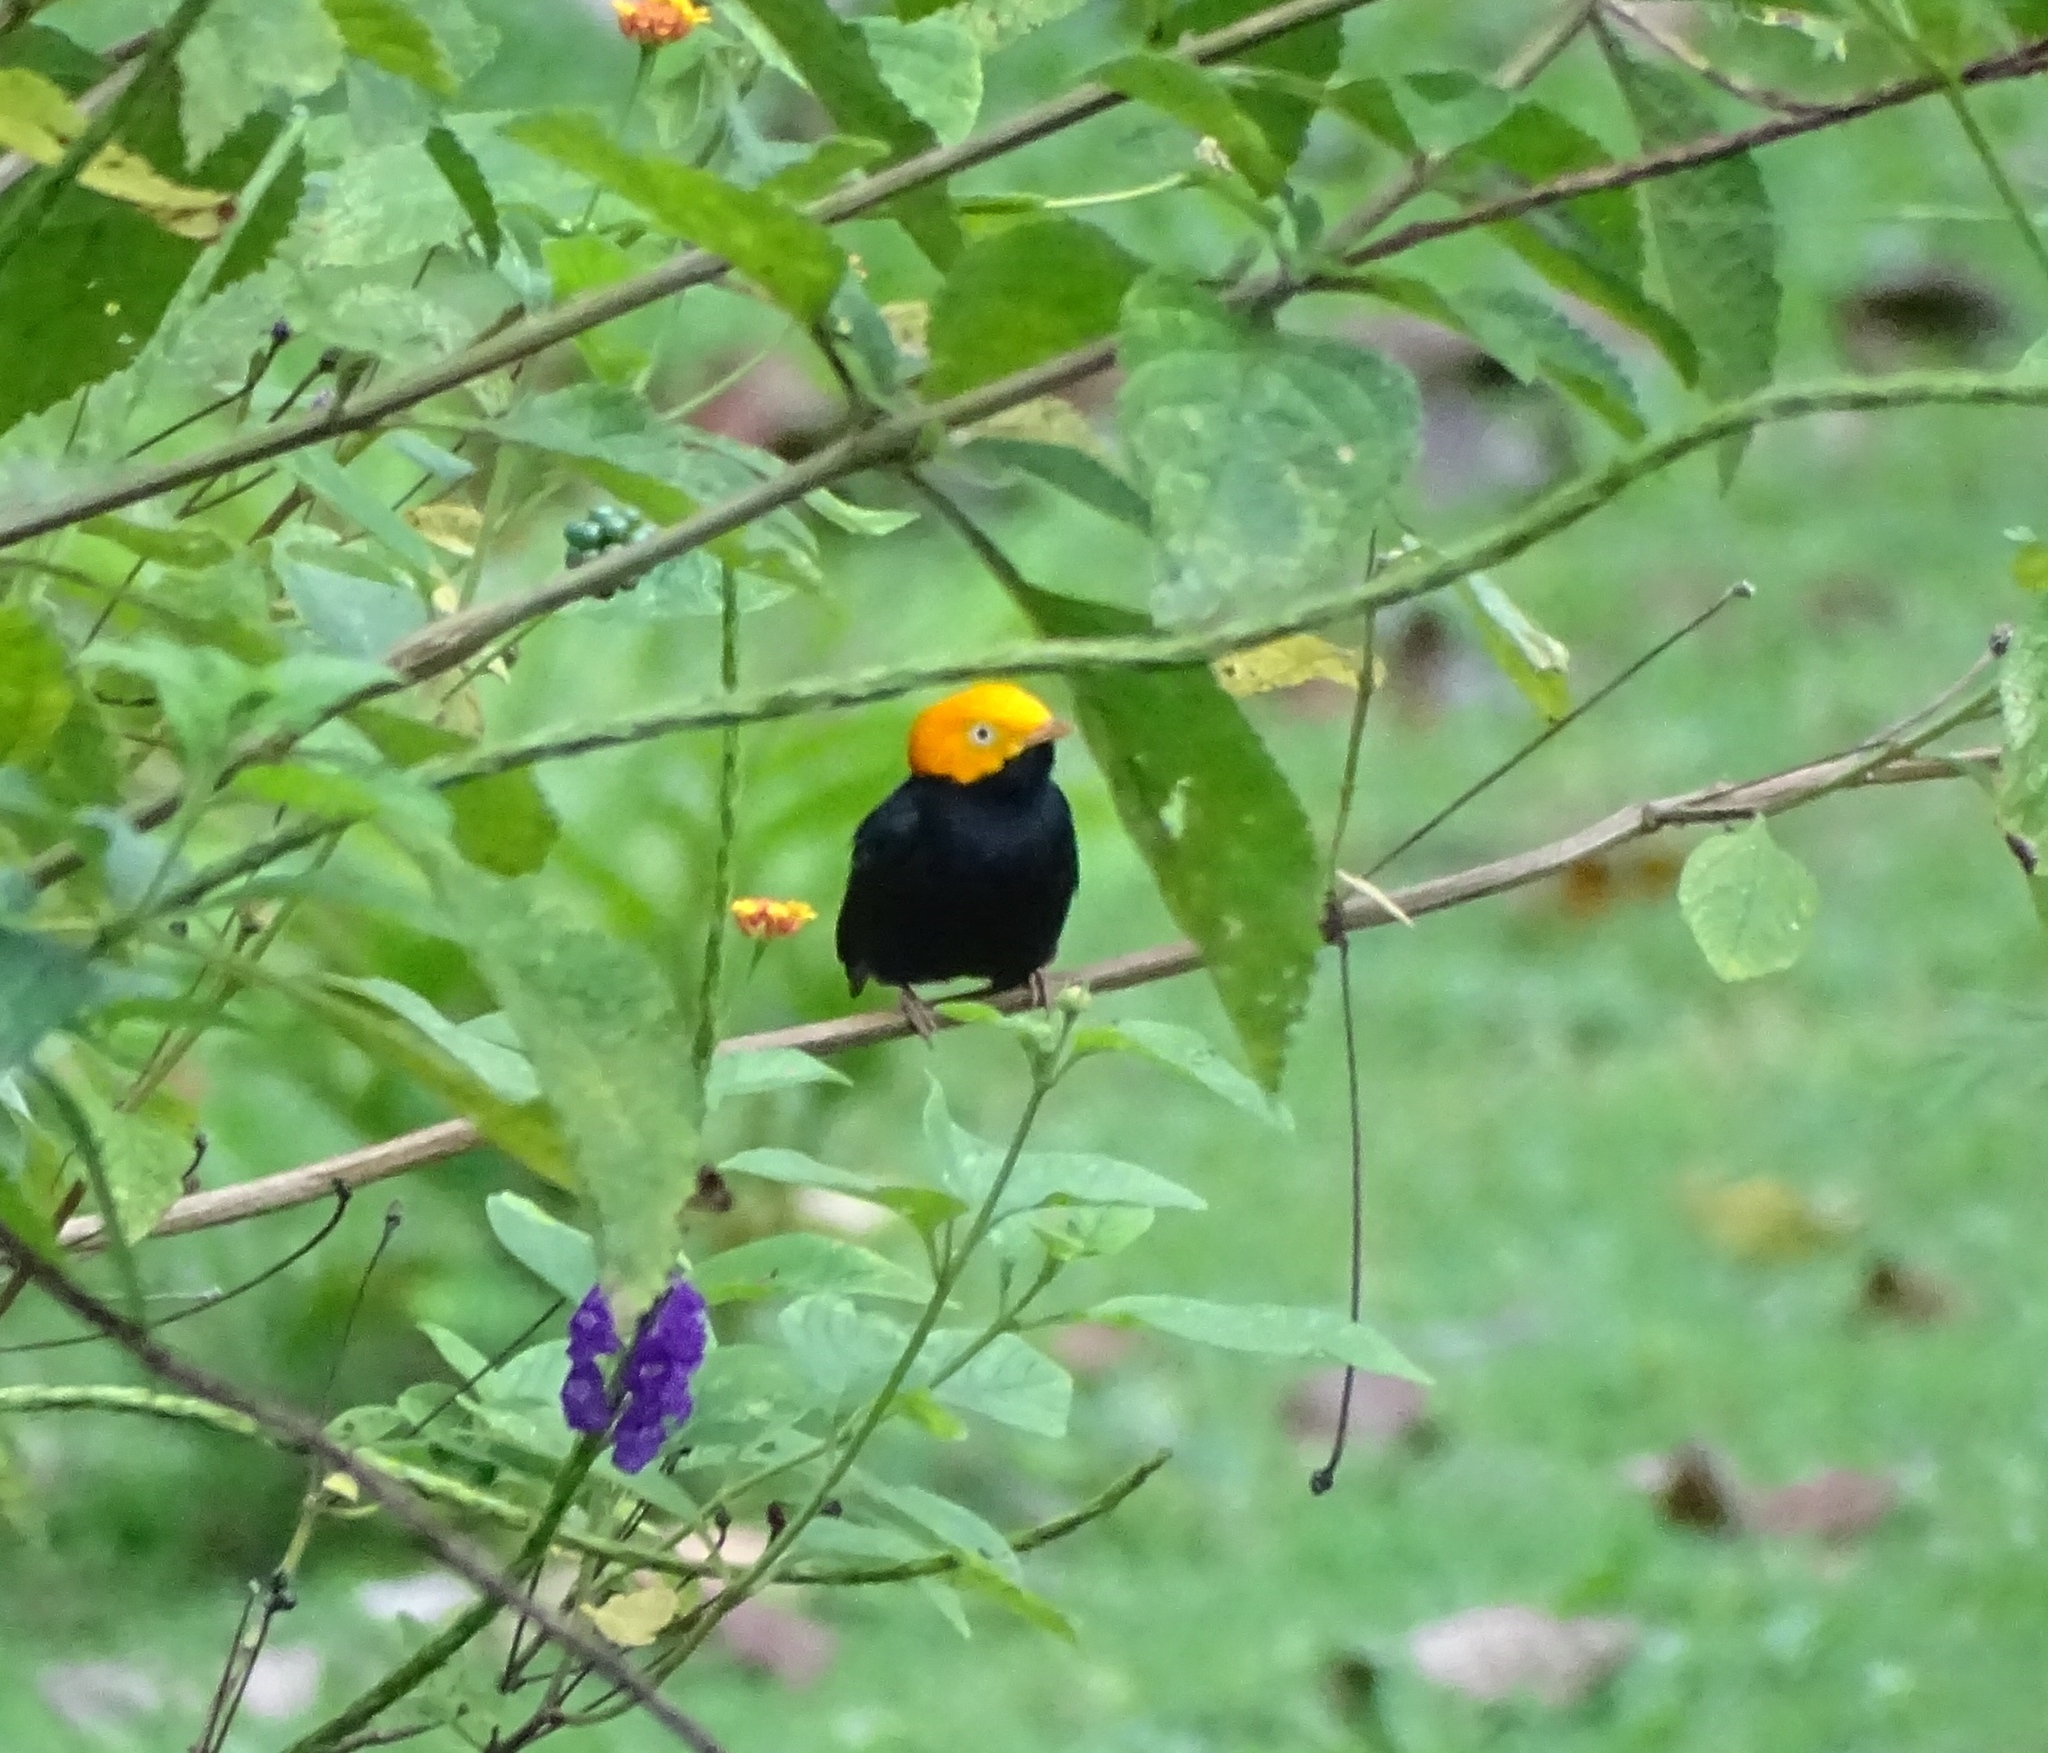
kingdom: Animalia
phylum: Chordata
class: Aves
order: Passeriformes
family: Pipridae
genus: Pipra
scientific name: Pipra erythrocephala
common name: Golden-headed manakin
